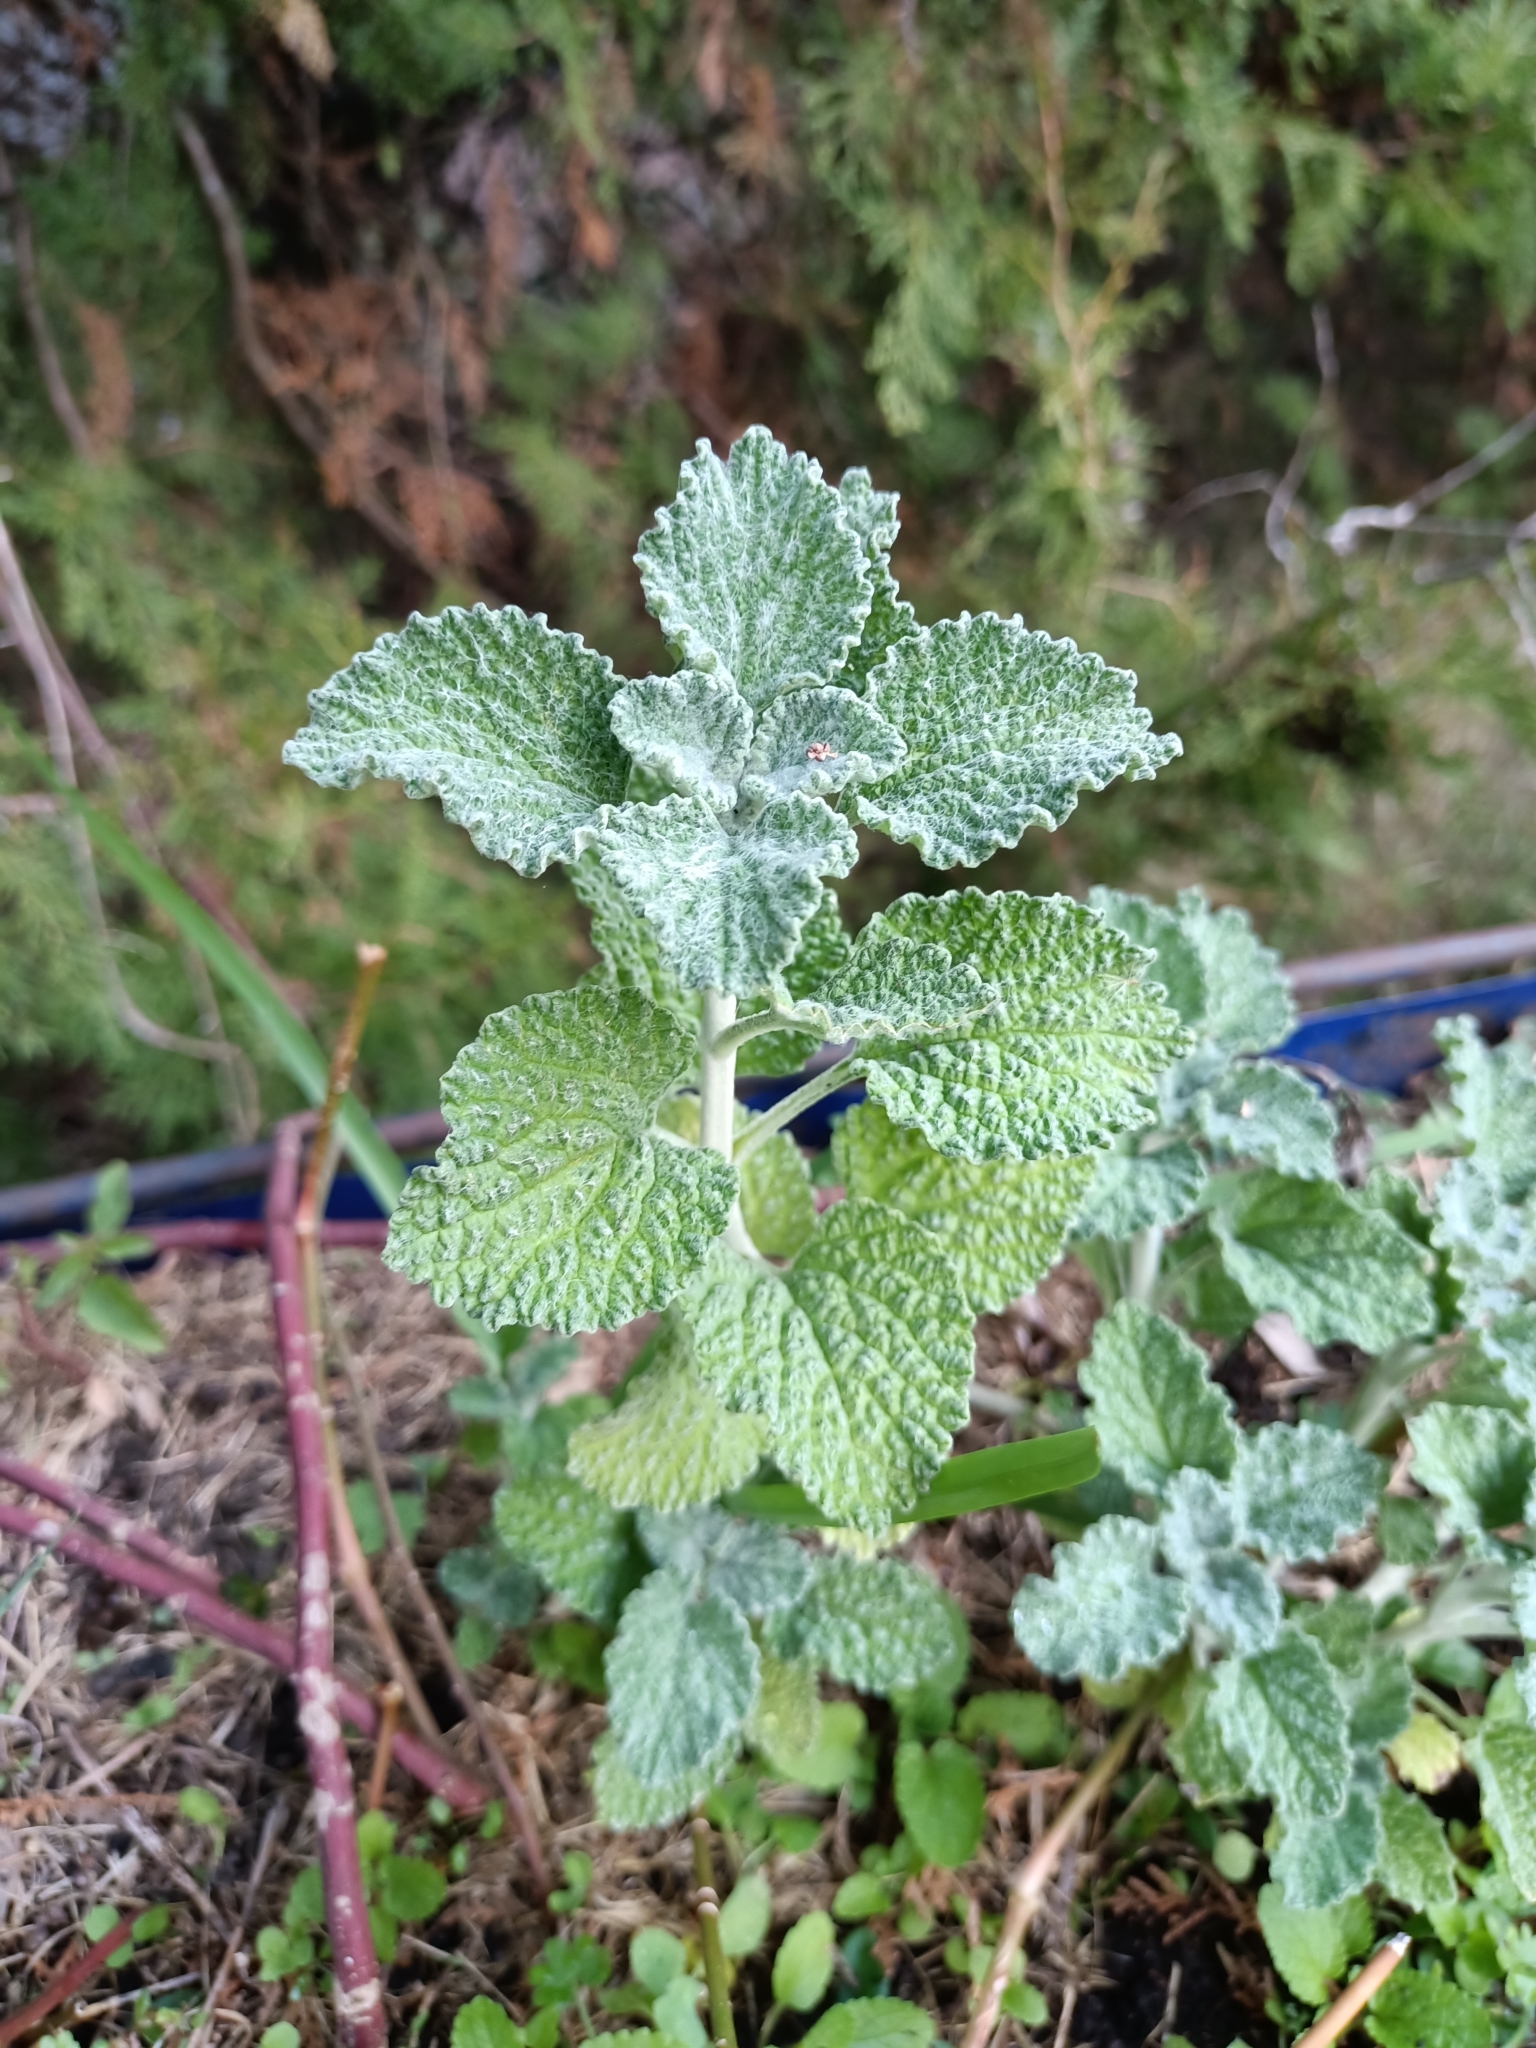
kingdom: Plantae
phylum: Tracheophyta
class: Magnoliopsida
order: Lamiales
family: Lamiaceae
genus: Marrubium
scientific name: Marrubium vulgare
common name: Horehound
